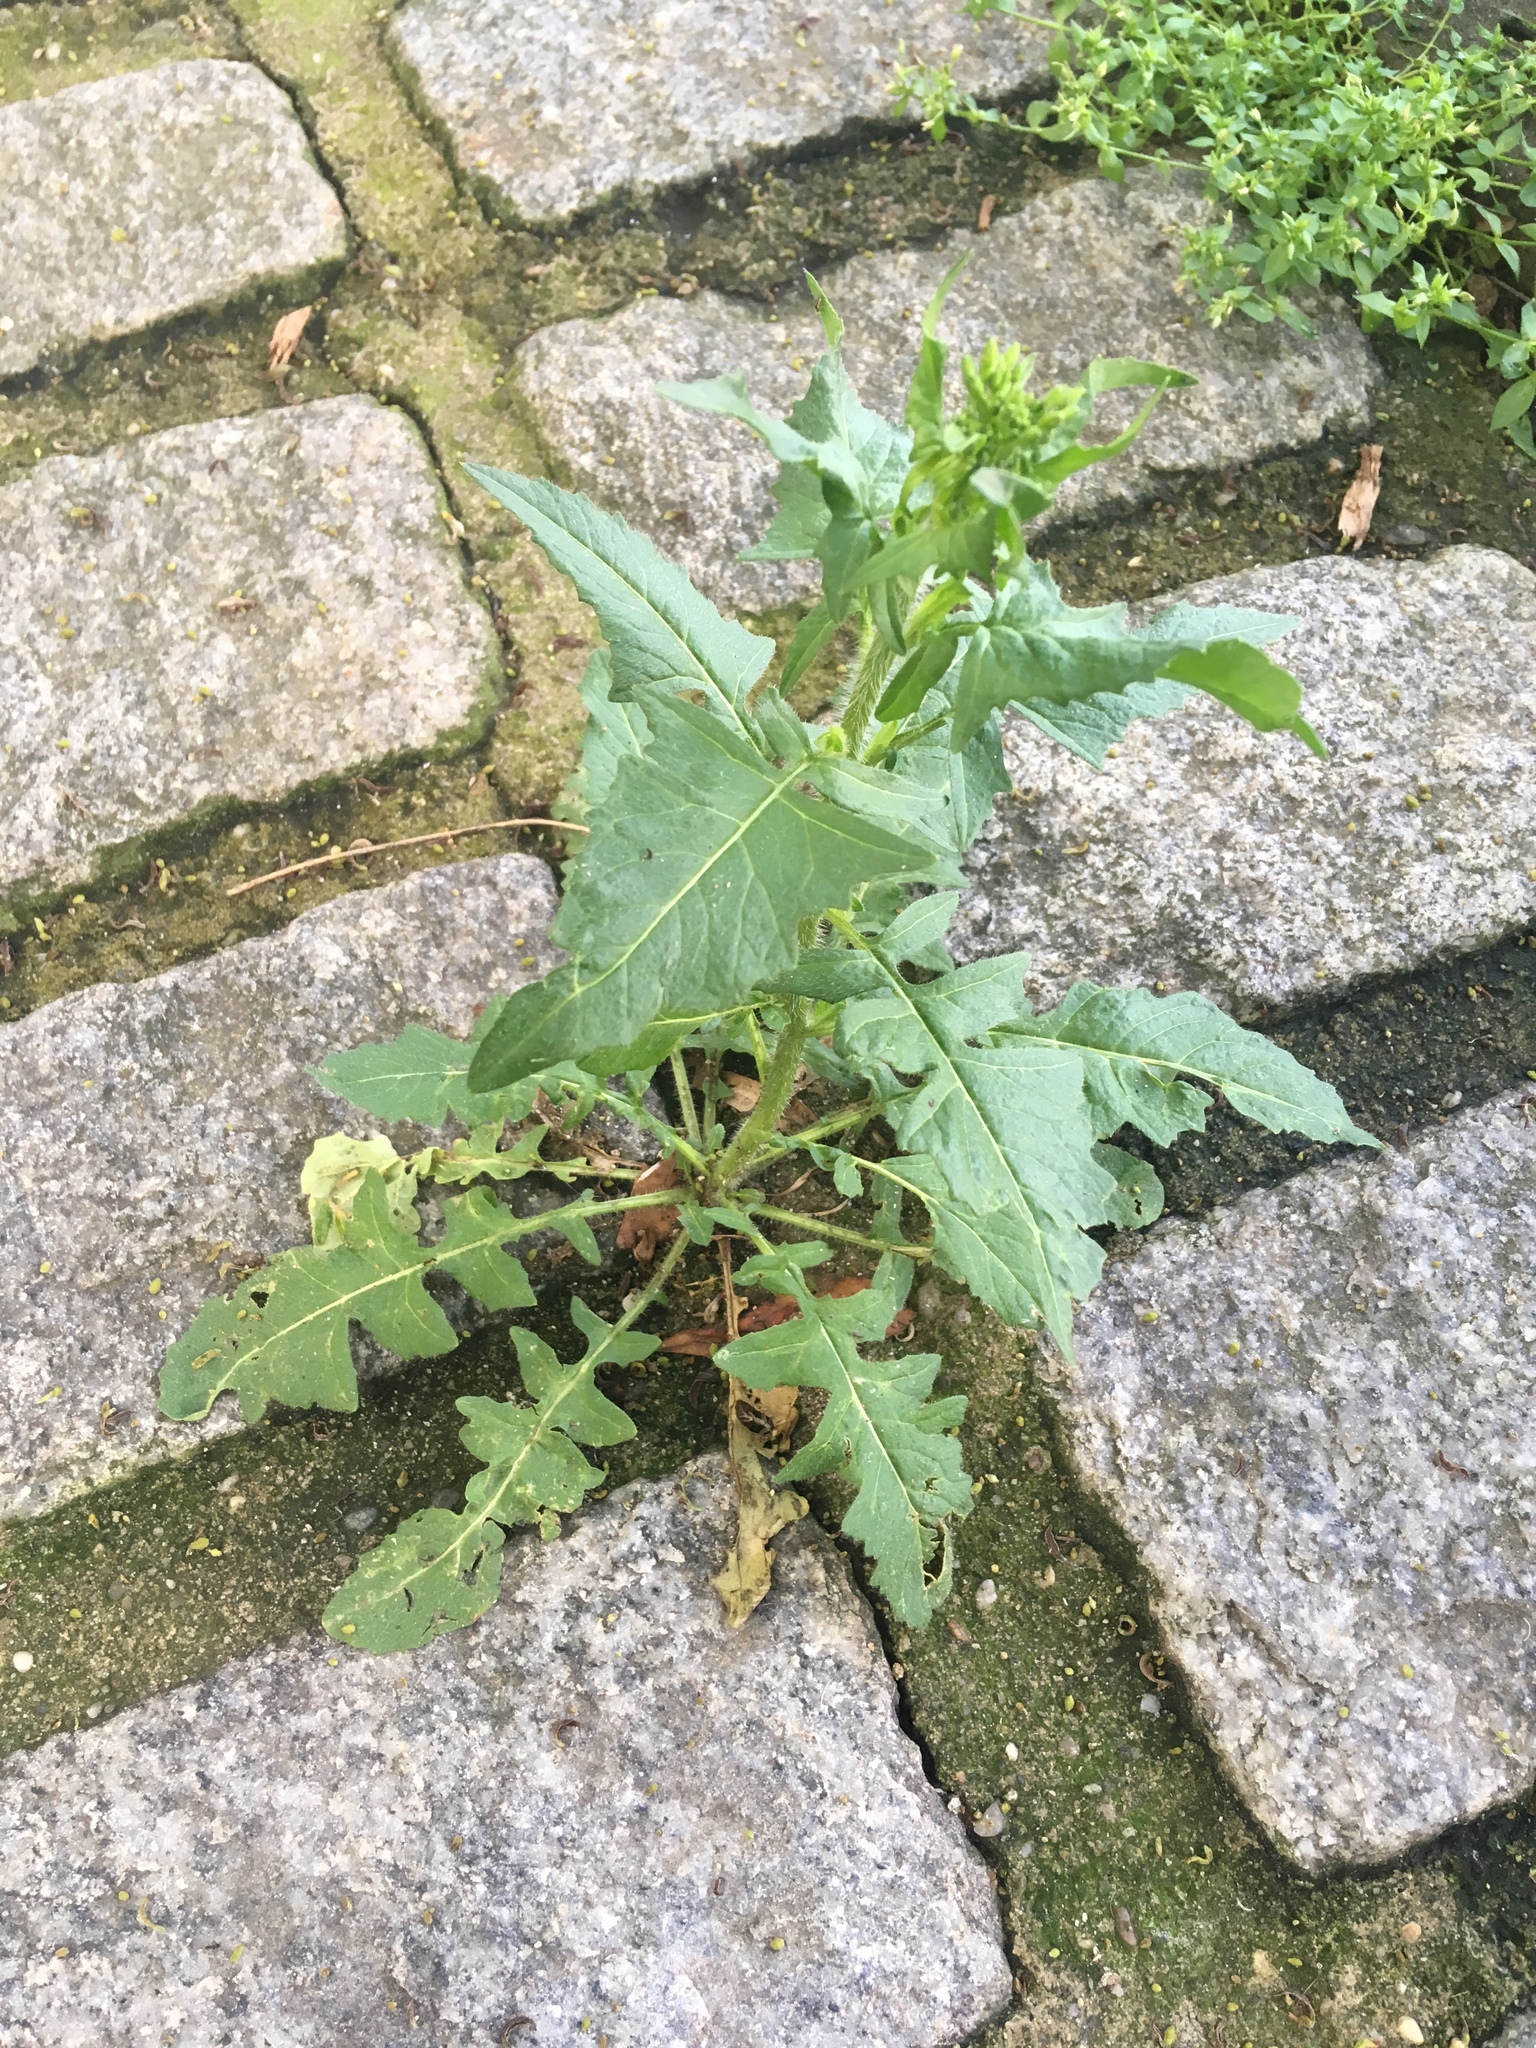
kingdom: Plantae
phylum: Tracheophyta
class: Magnoliopsida
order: Brassicales
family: Brassicaceae
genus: Sisymbrium
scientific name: Sisymbrium loeselii
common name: False london-rocket
